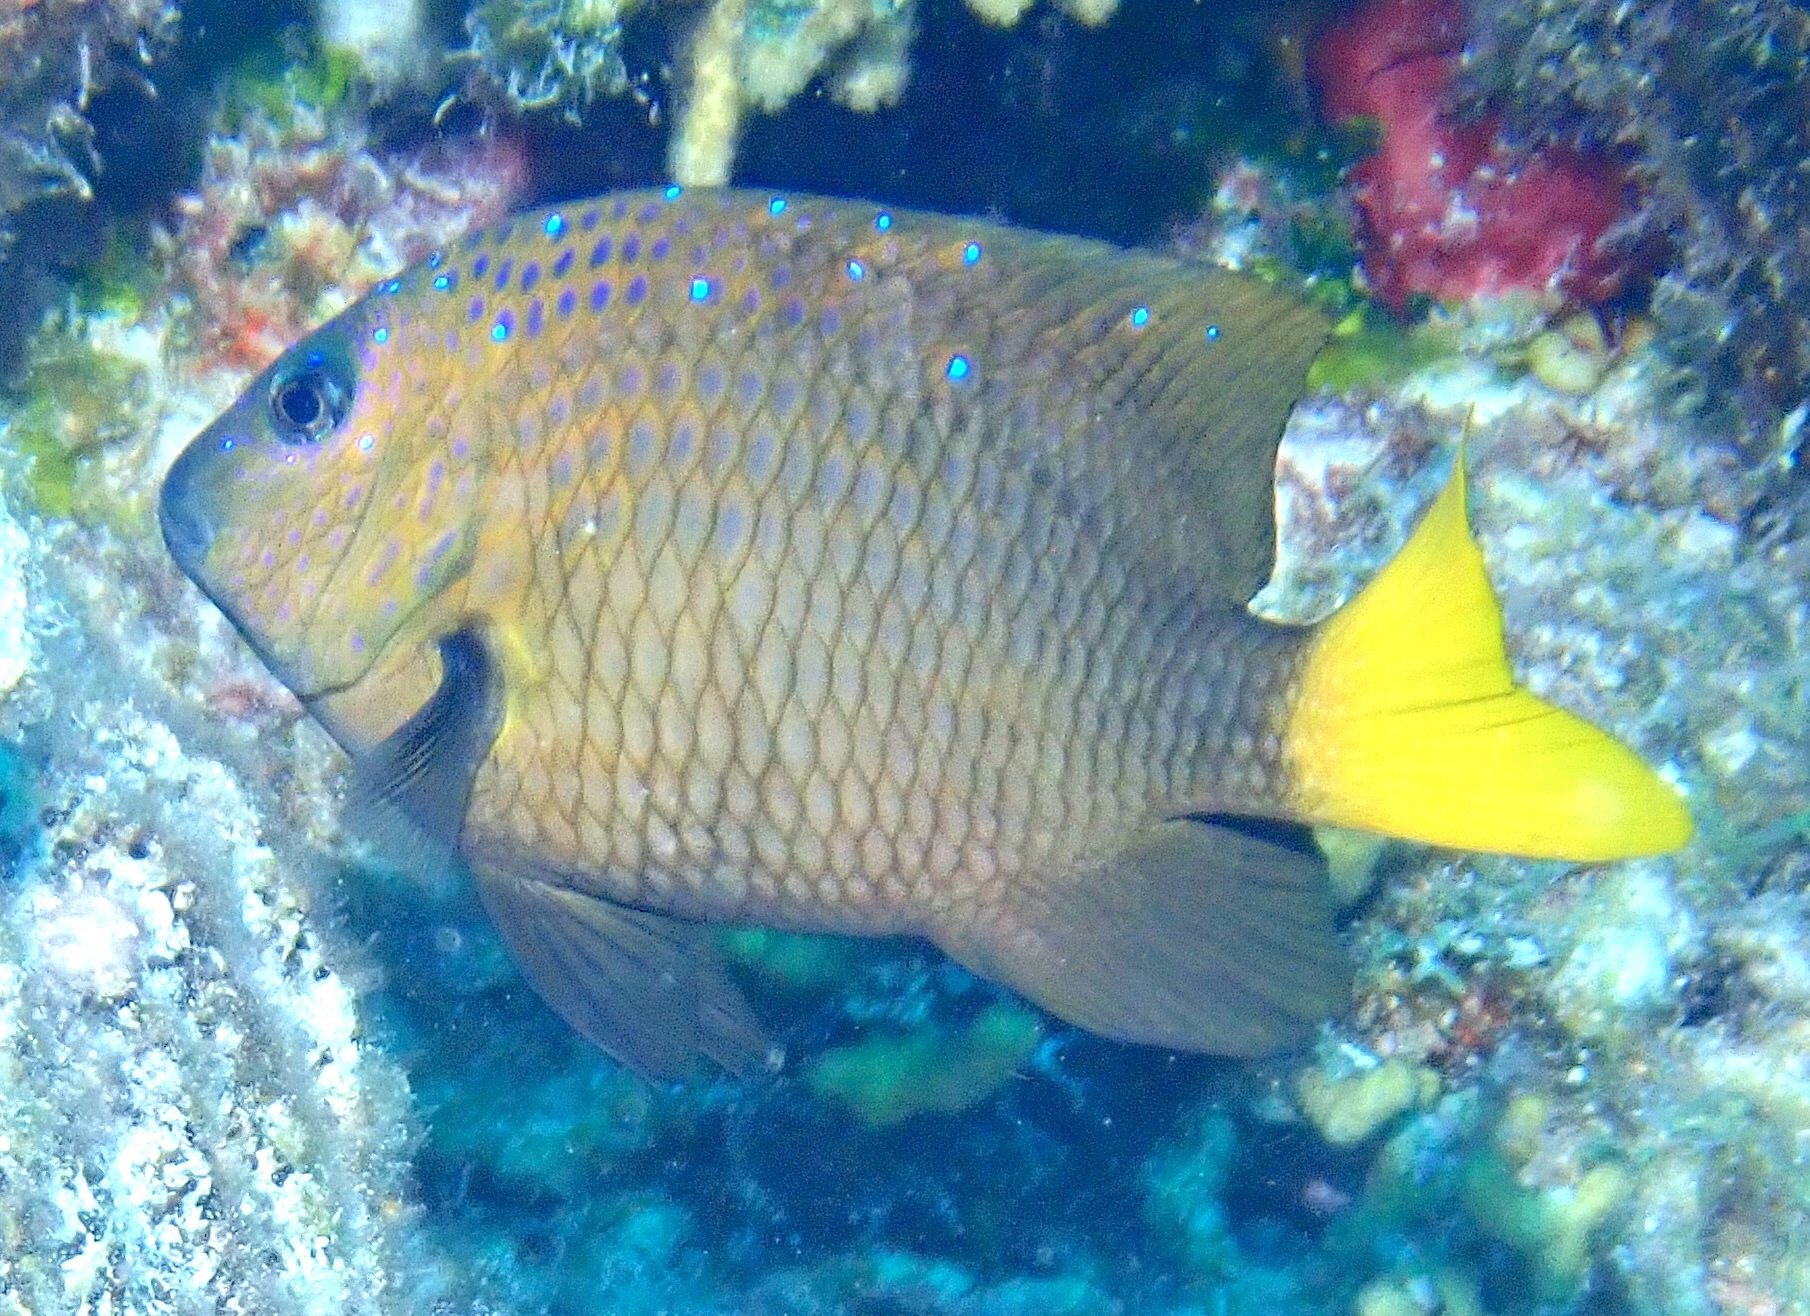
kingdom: Animalia
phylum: Chordata
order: Perciformes
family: Pomacentridae
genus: Microspathodon
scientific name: Microspathodon chrysurus
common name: Yellowtail damselfish
